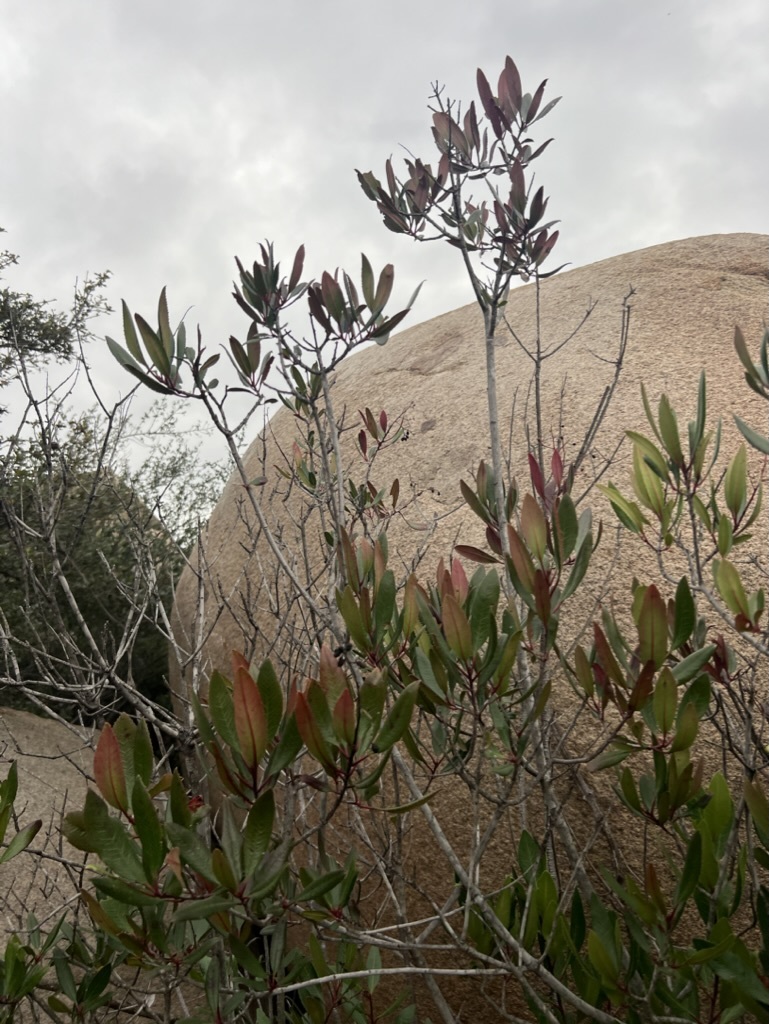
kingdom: Plantae
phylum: Tracheophyta
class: Magnoliopsida
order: Rosales
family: Rosaceae
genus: Heteromeles
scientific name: Heteromeles arbutifolia
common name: California-holly
